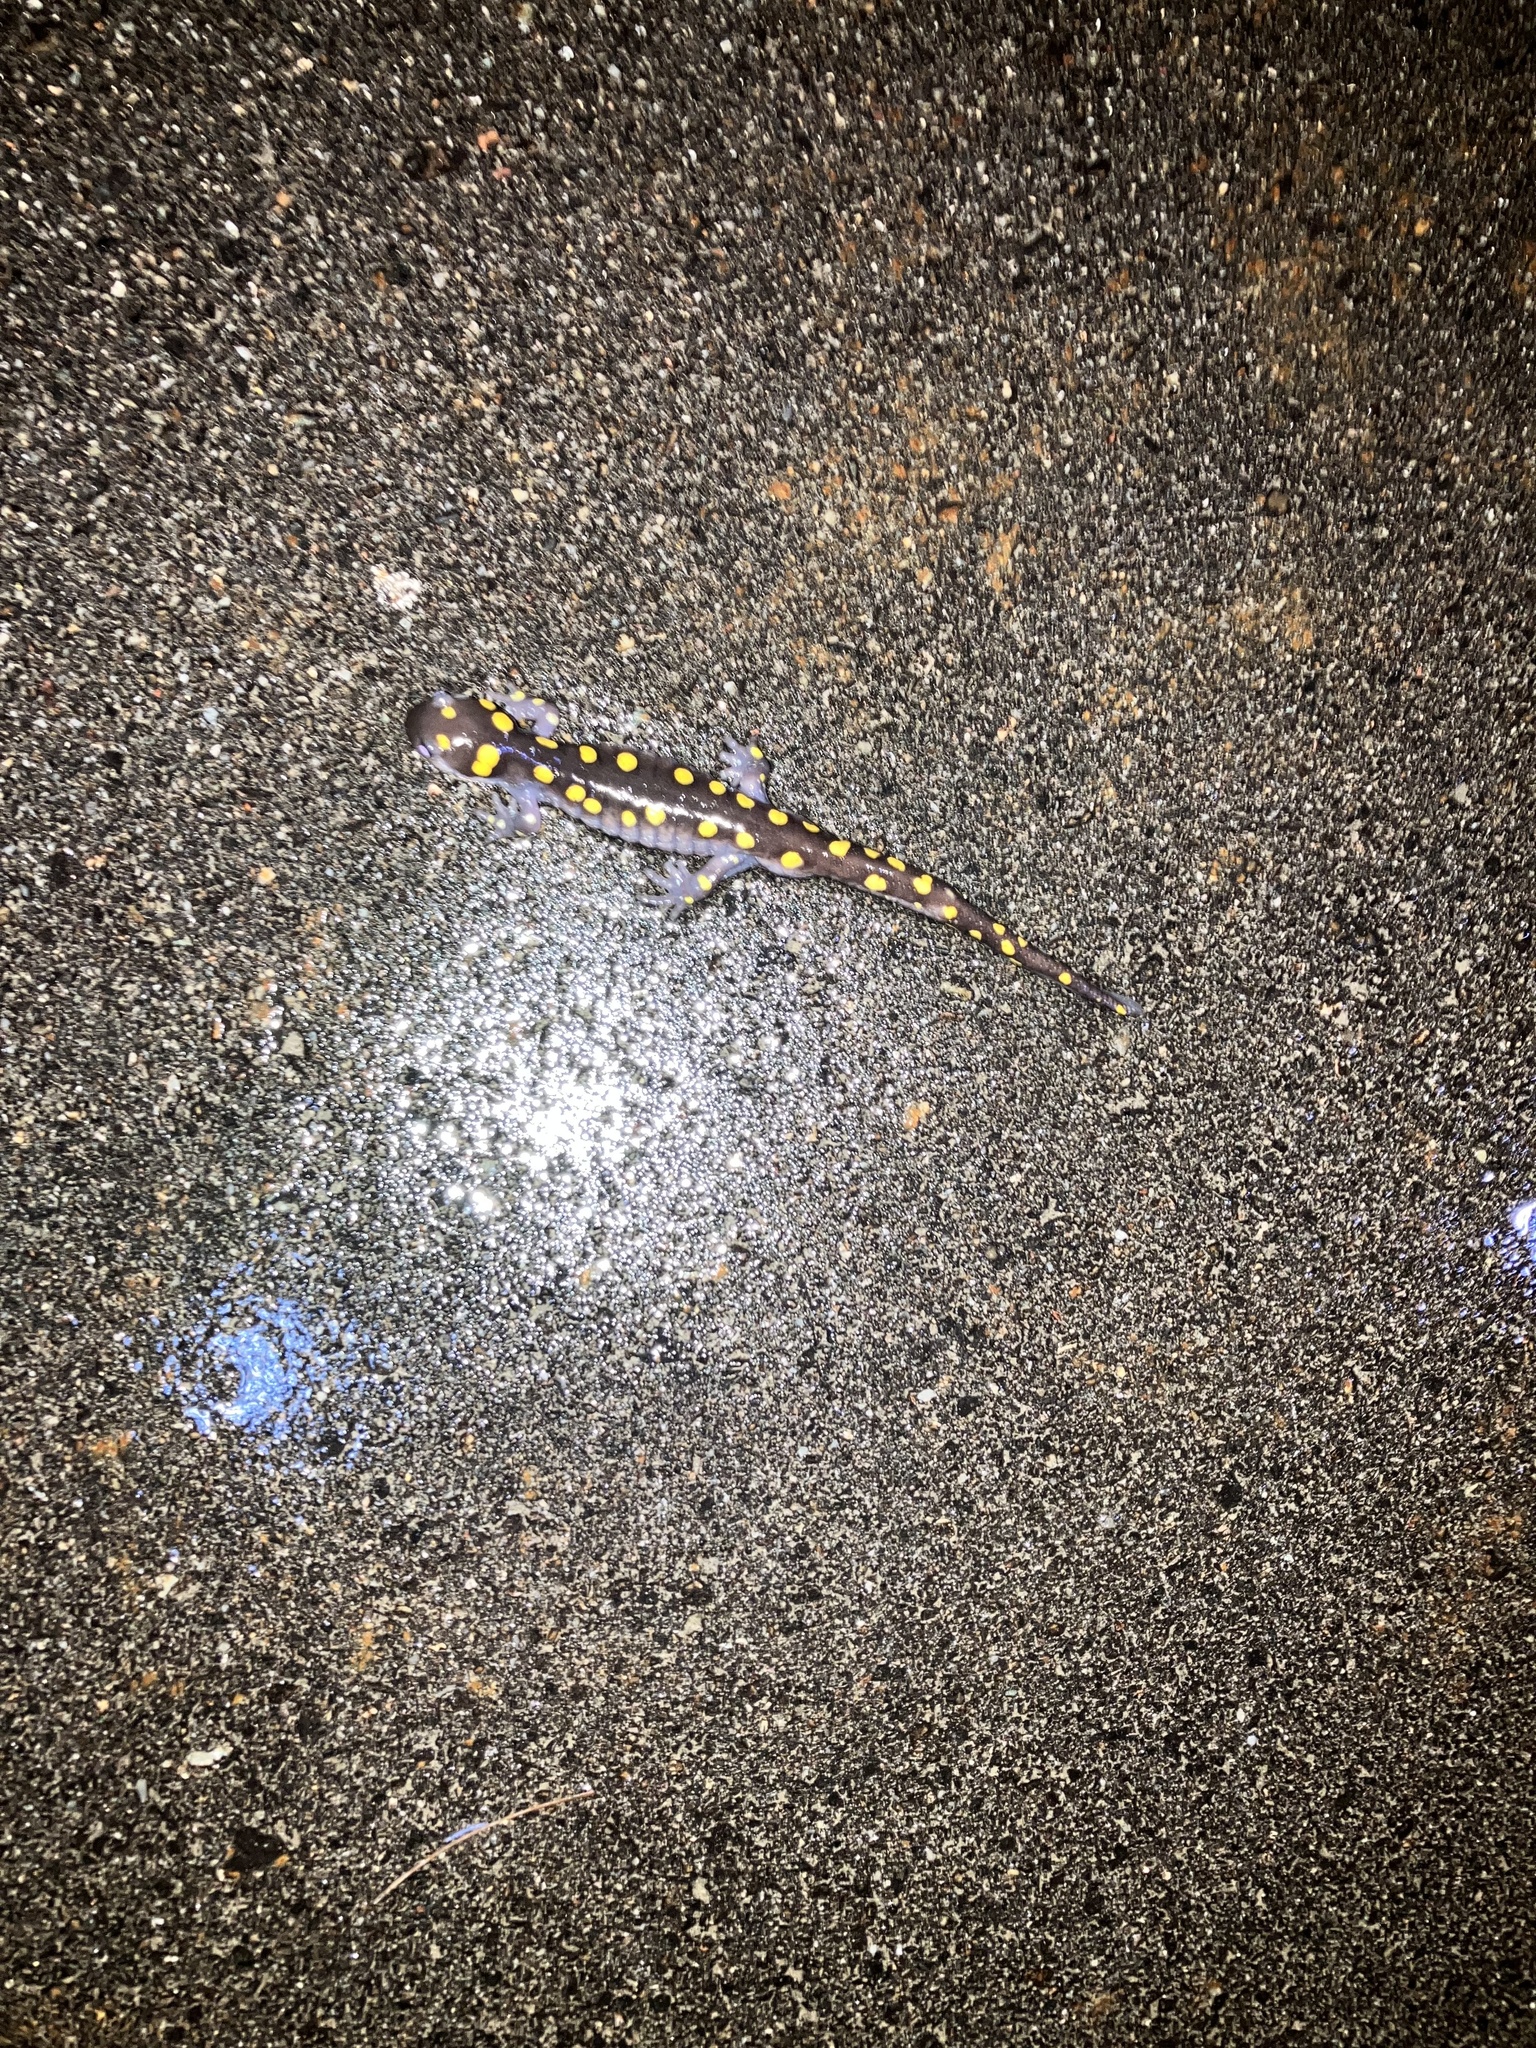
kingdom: Animalia
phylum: Chordata
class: Amphibia
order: Caudata
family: Ambystomatidae
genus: Ambystoma
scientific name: Ambystoma maculatum
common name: Spotted salamander
